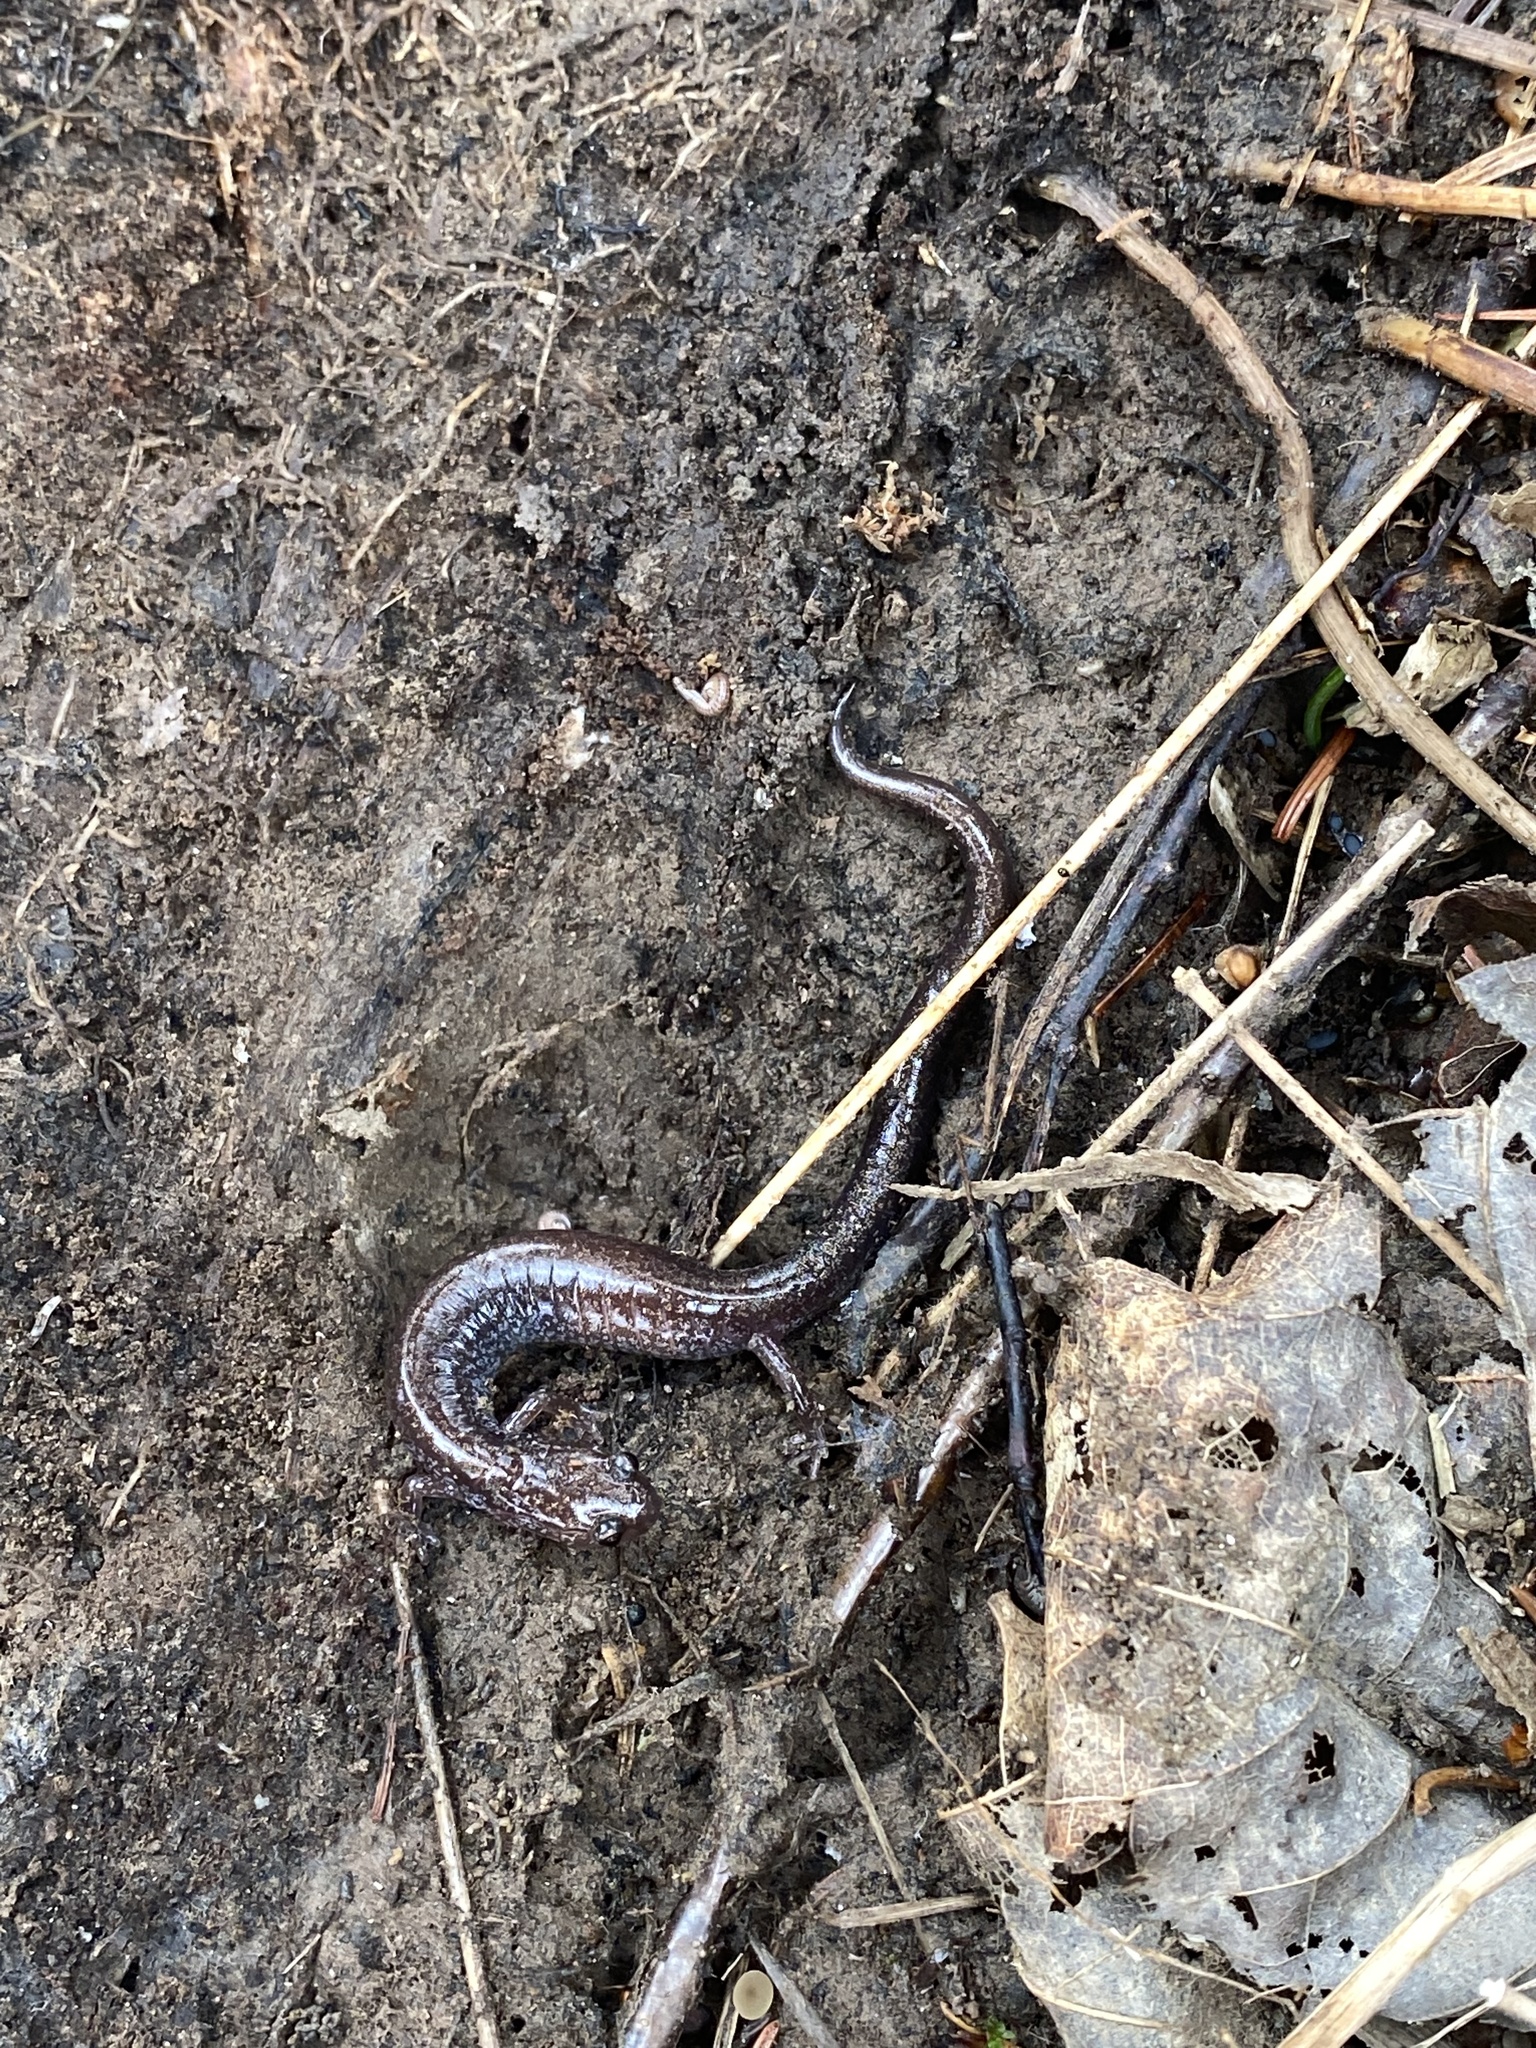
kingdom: Animalia
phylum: Chordata
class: Amphibia
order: Caudata
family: Plethodontidae
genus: Plethodon
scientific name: Plethodon cinereus
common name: Redback salamander
